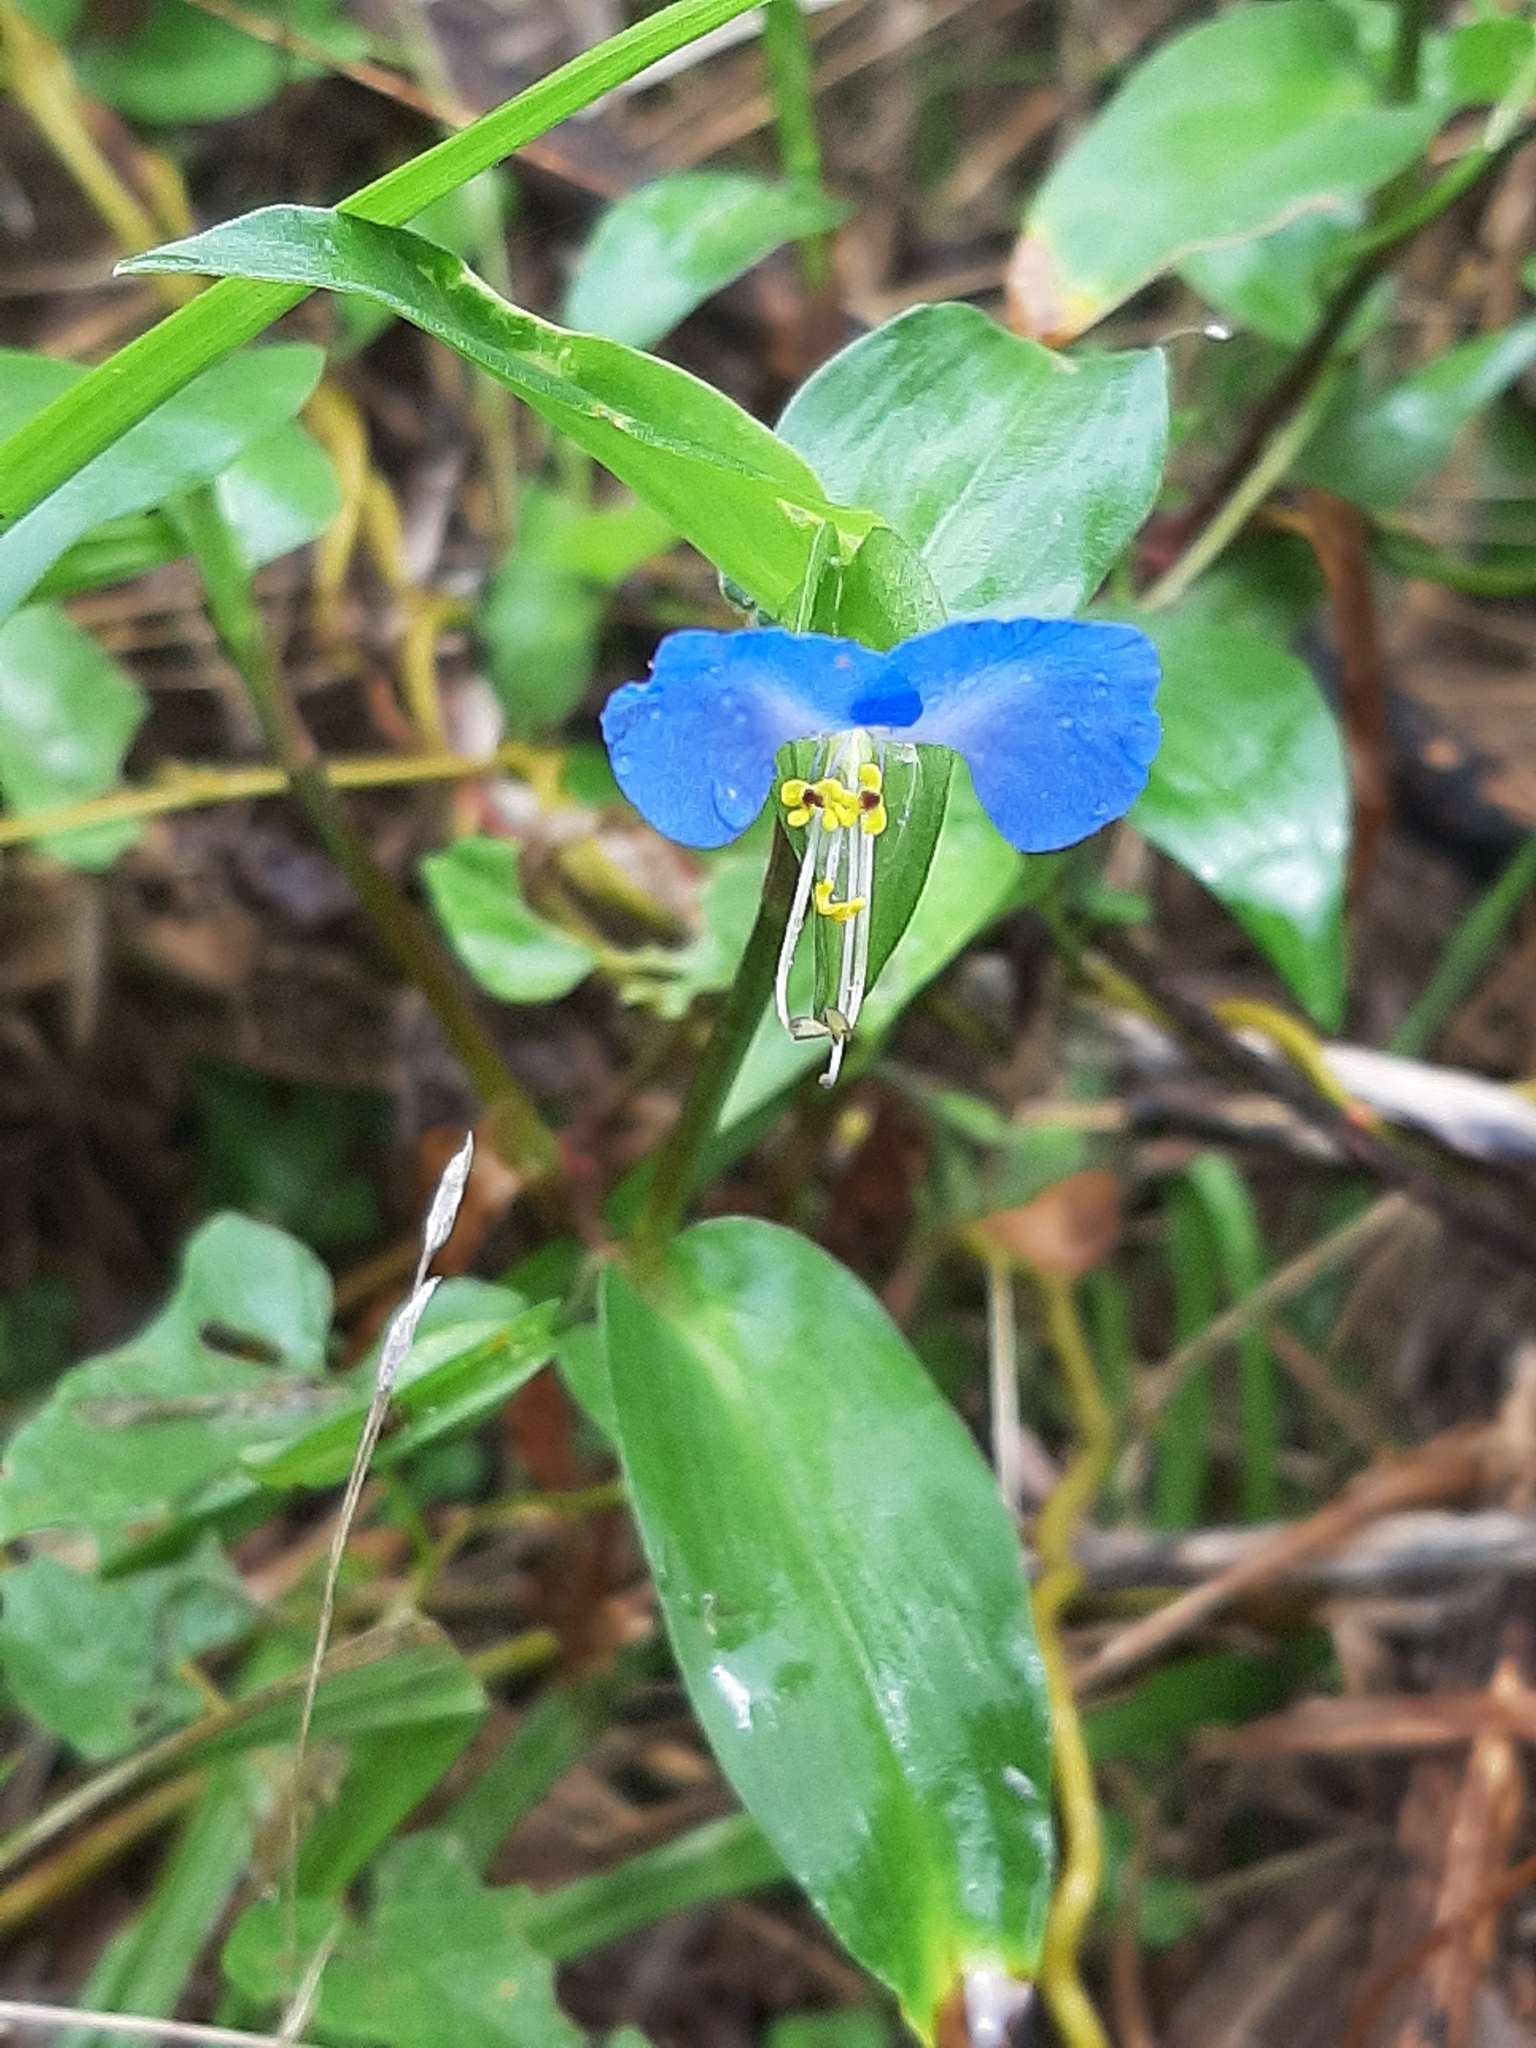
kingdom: Plantae
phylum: Tracheophyta
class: Liliopsida
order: Commelinales
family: Commelinaceae
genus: Commelina
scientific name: Commelina communis
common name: Asiatic dayflower
